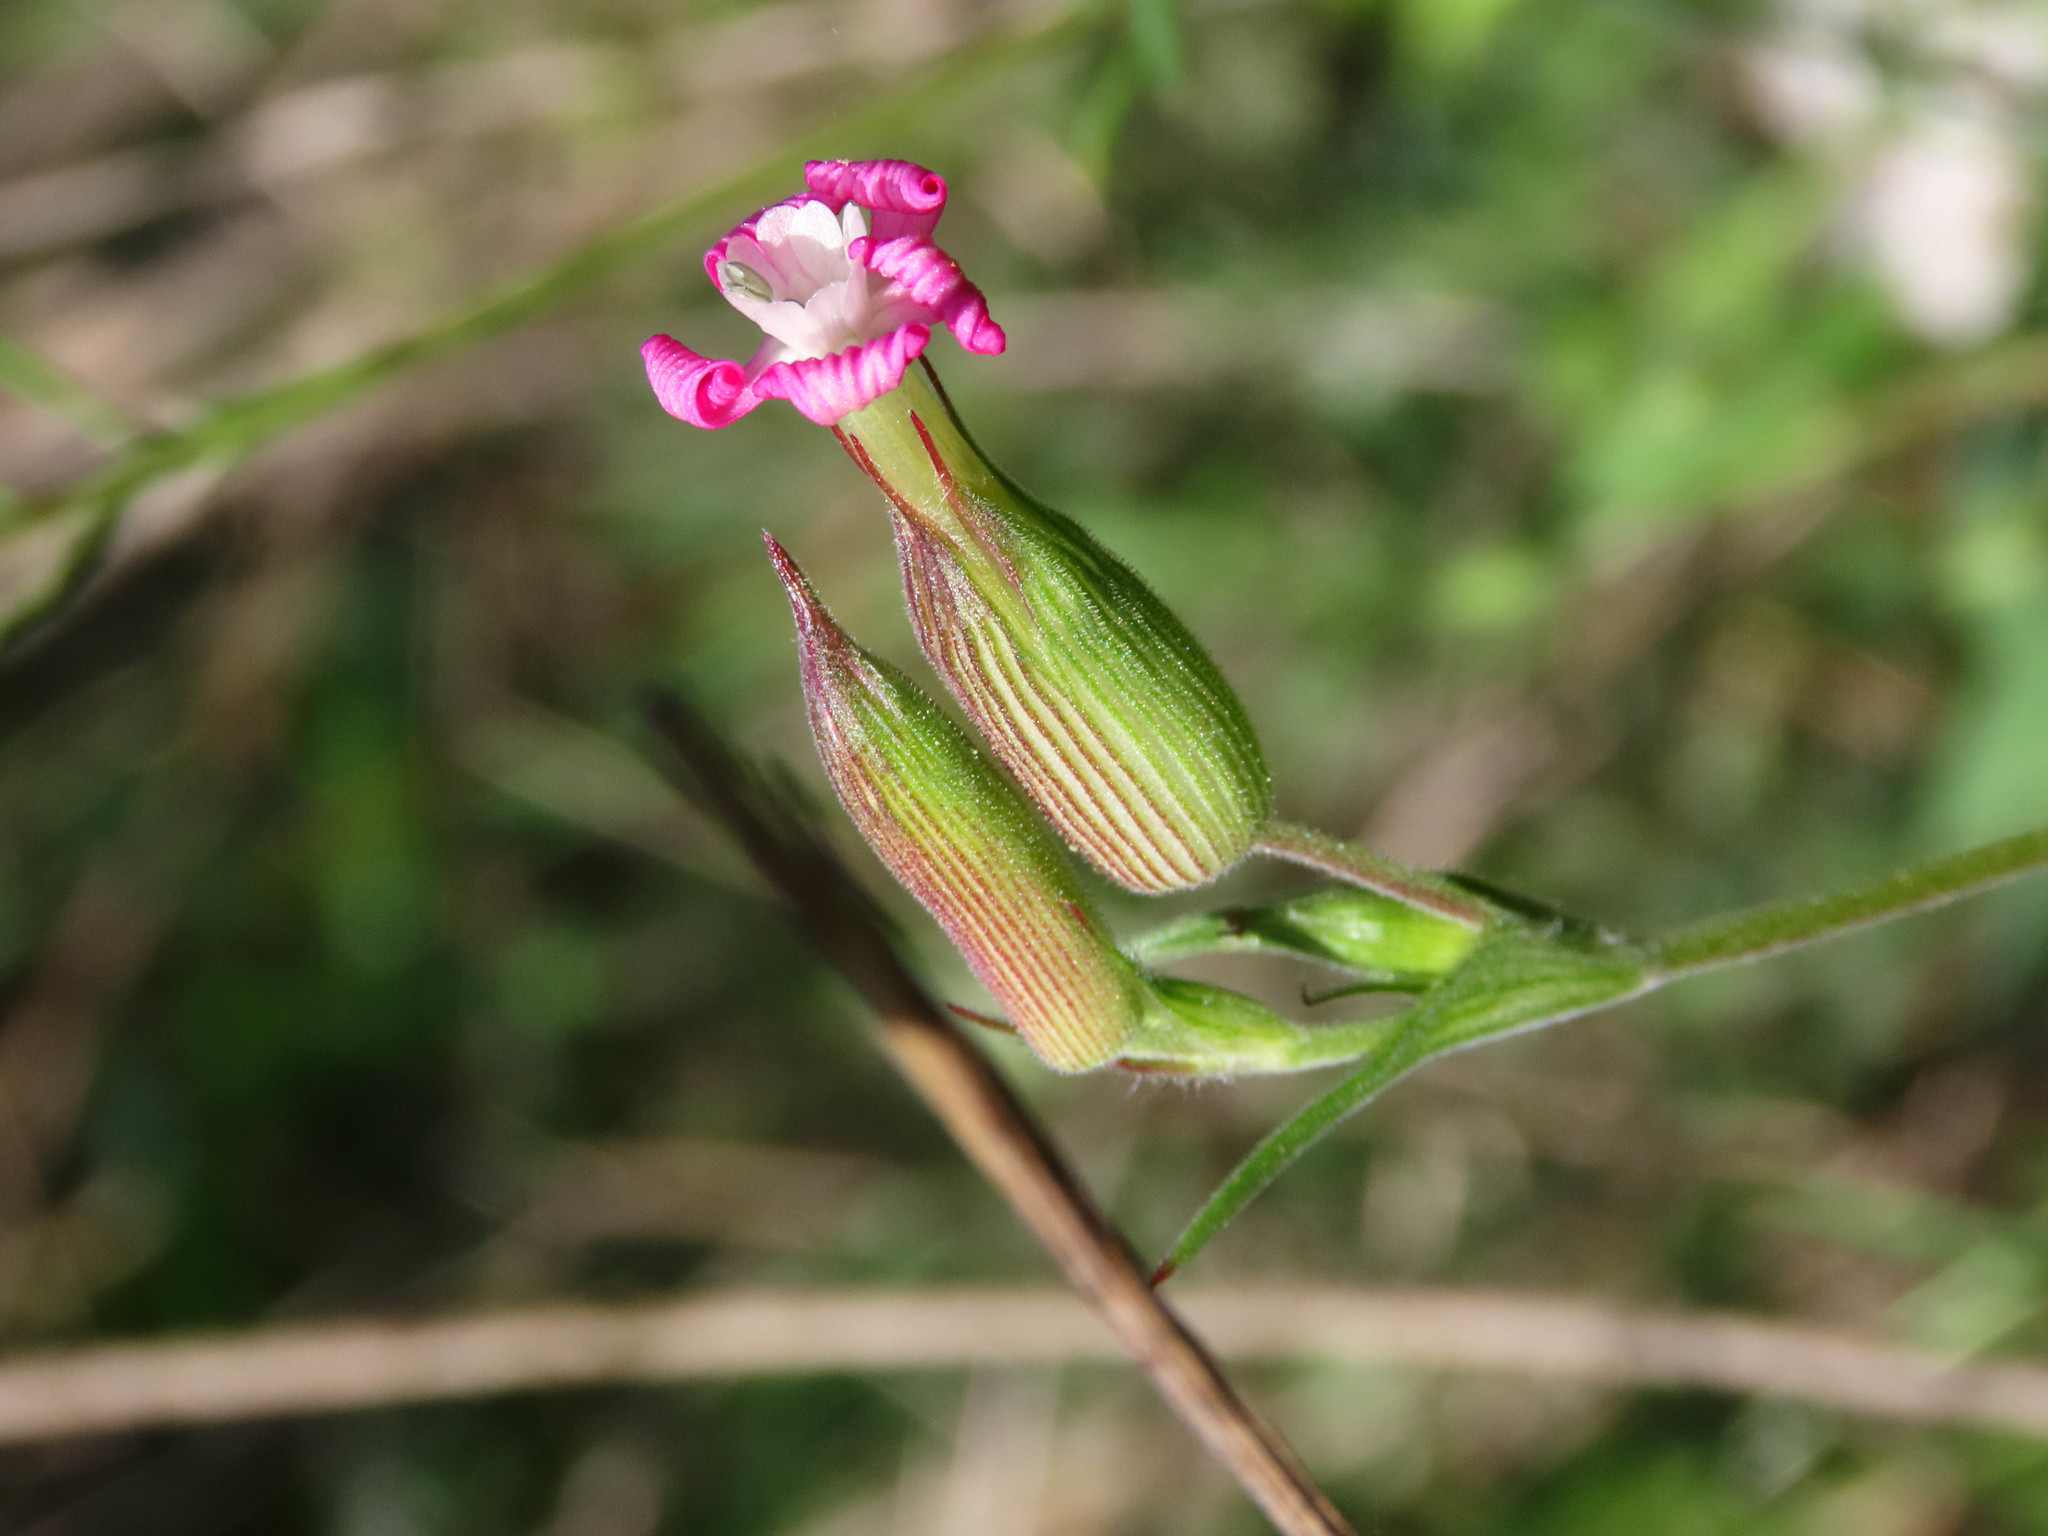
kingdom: Plantae
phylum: Tracheophyta
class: Magnoliopsida
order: Caryophyllales
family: Caryophyllaceae
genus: Silene
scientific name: Silene conica
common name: Sand catchfly
